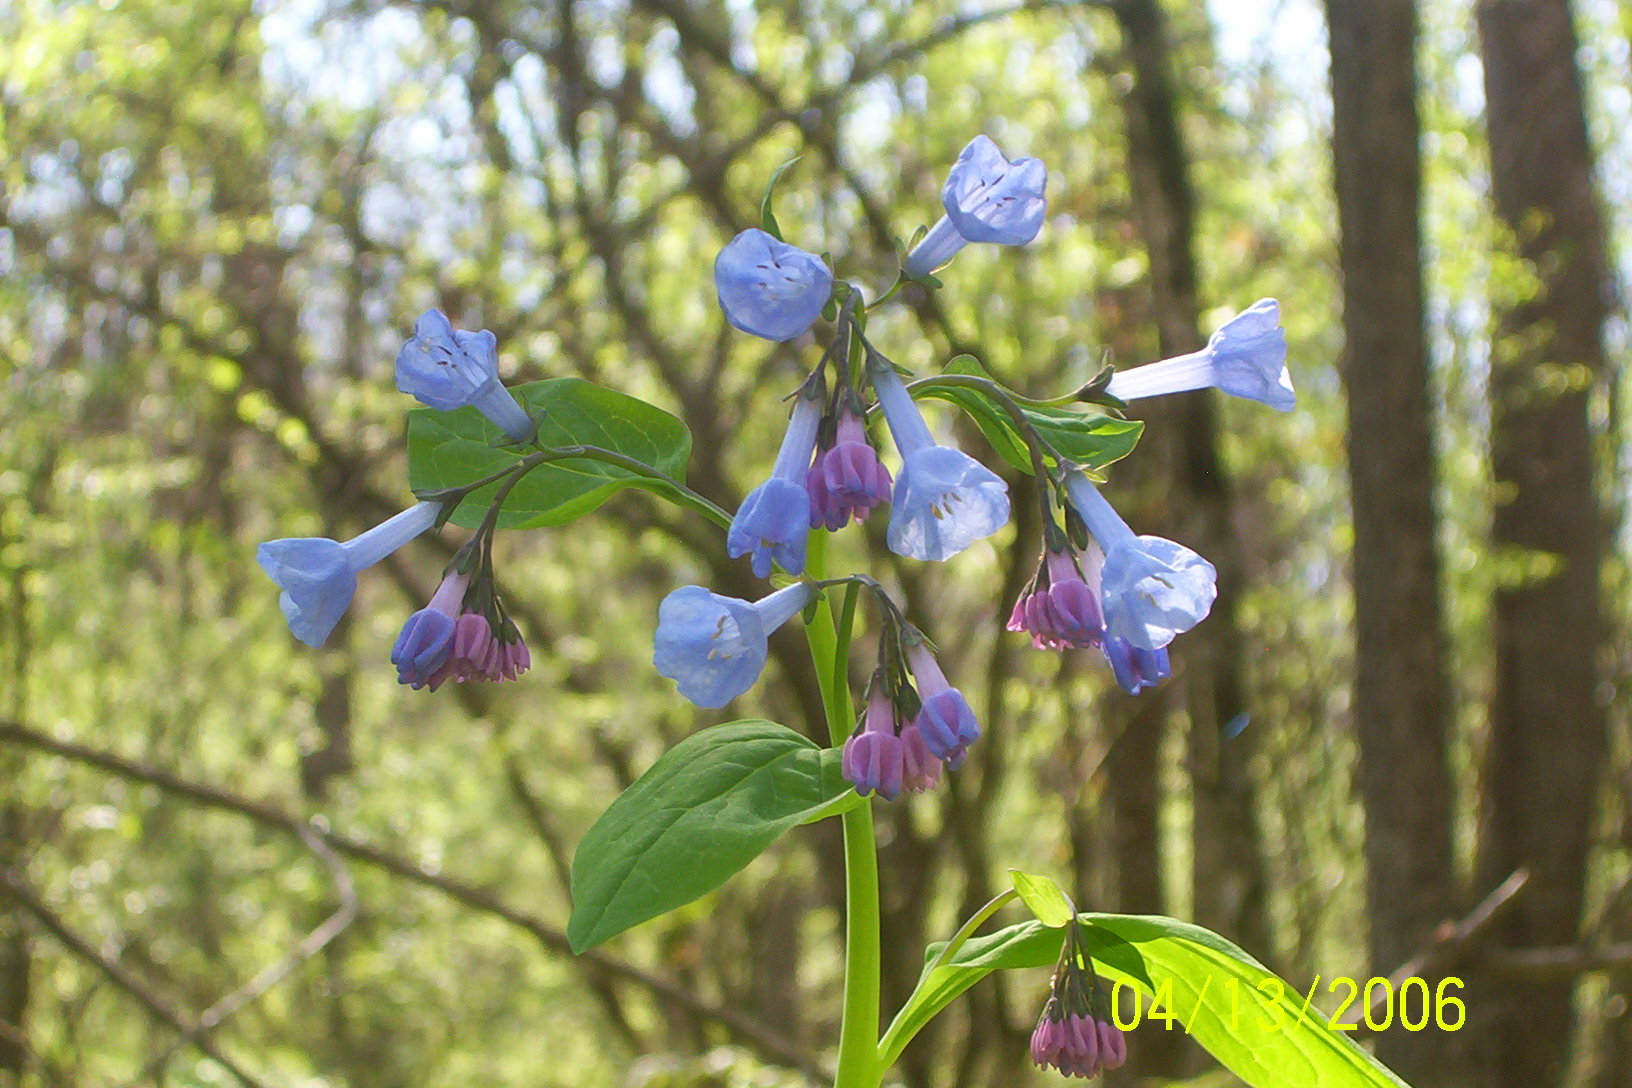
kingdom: Plantae
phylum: Tracheophyta
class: Magnoliopsida
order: Boraginales
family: Boraginaceae
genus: Mertensia
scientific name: Mertensia virginica
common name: Virginia bluebells
